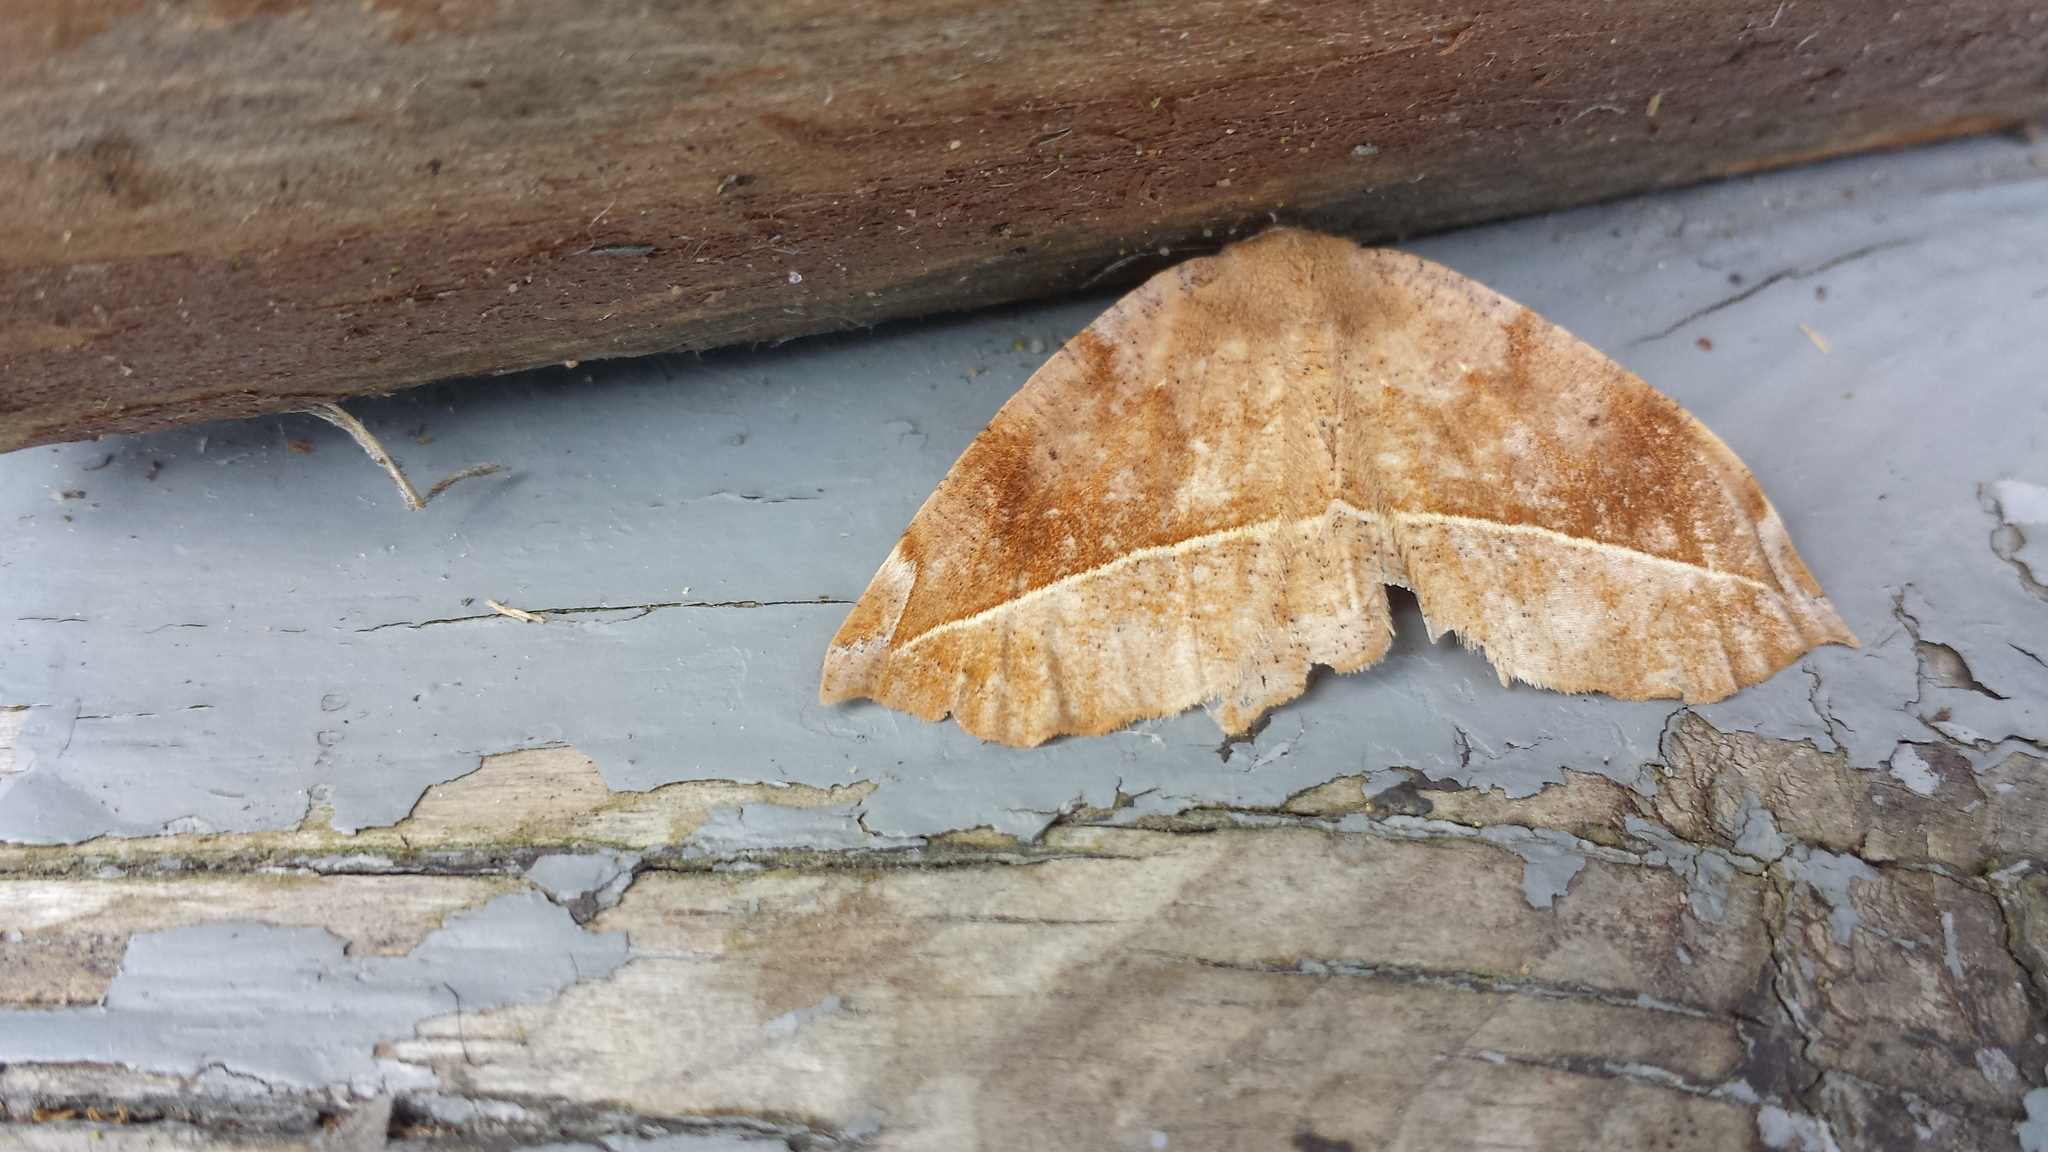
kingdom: Animalia
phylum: Arthropoda
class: Insecta
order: Lepidoptera
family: Geometridae
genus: Eutrapela
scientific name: Eutrapela clemataria
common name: Curved-toothed geometer
